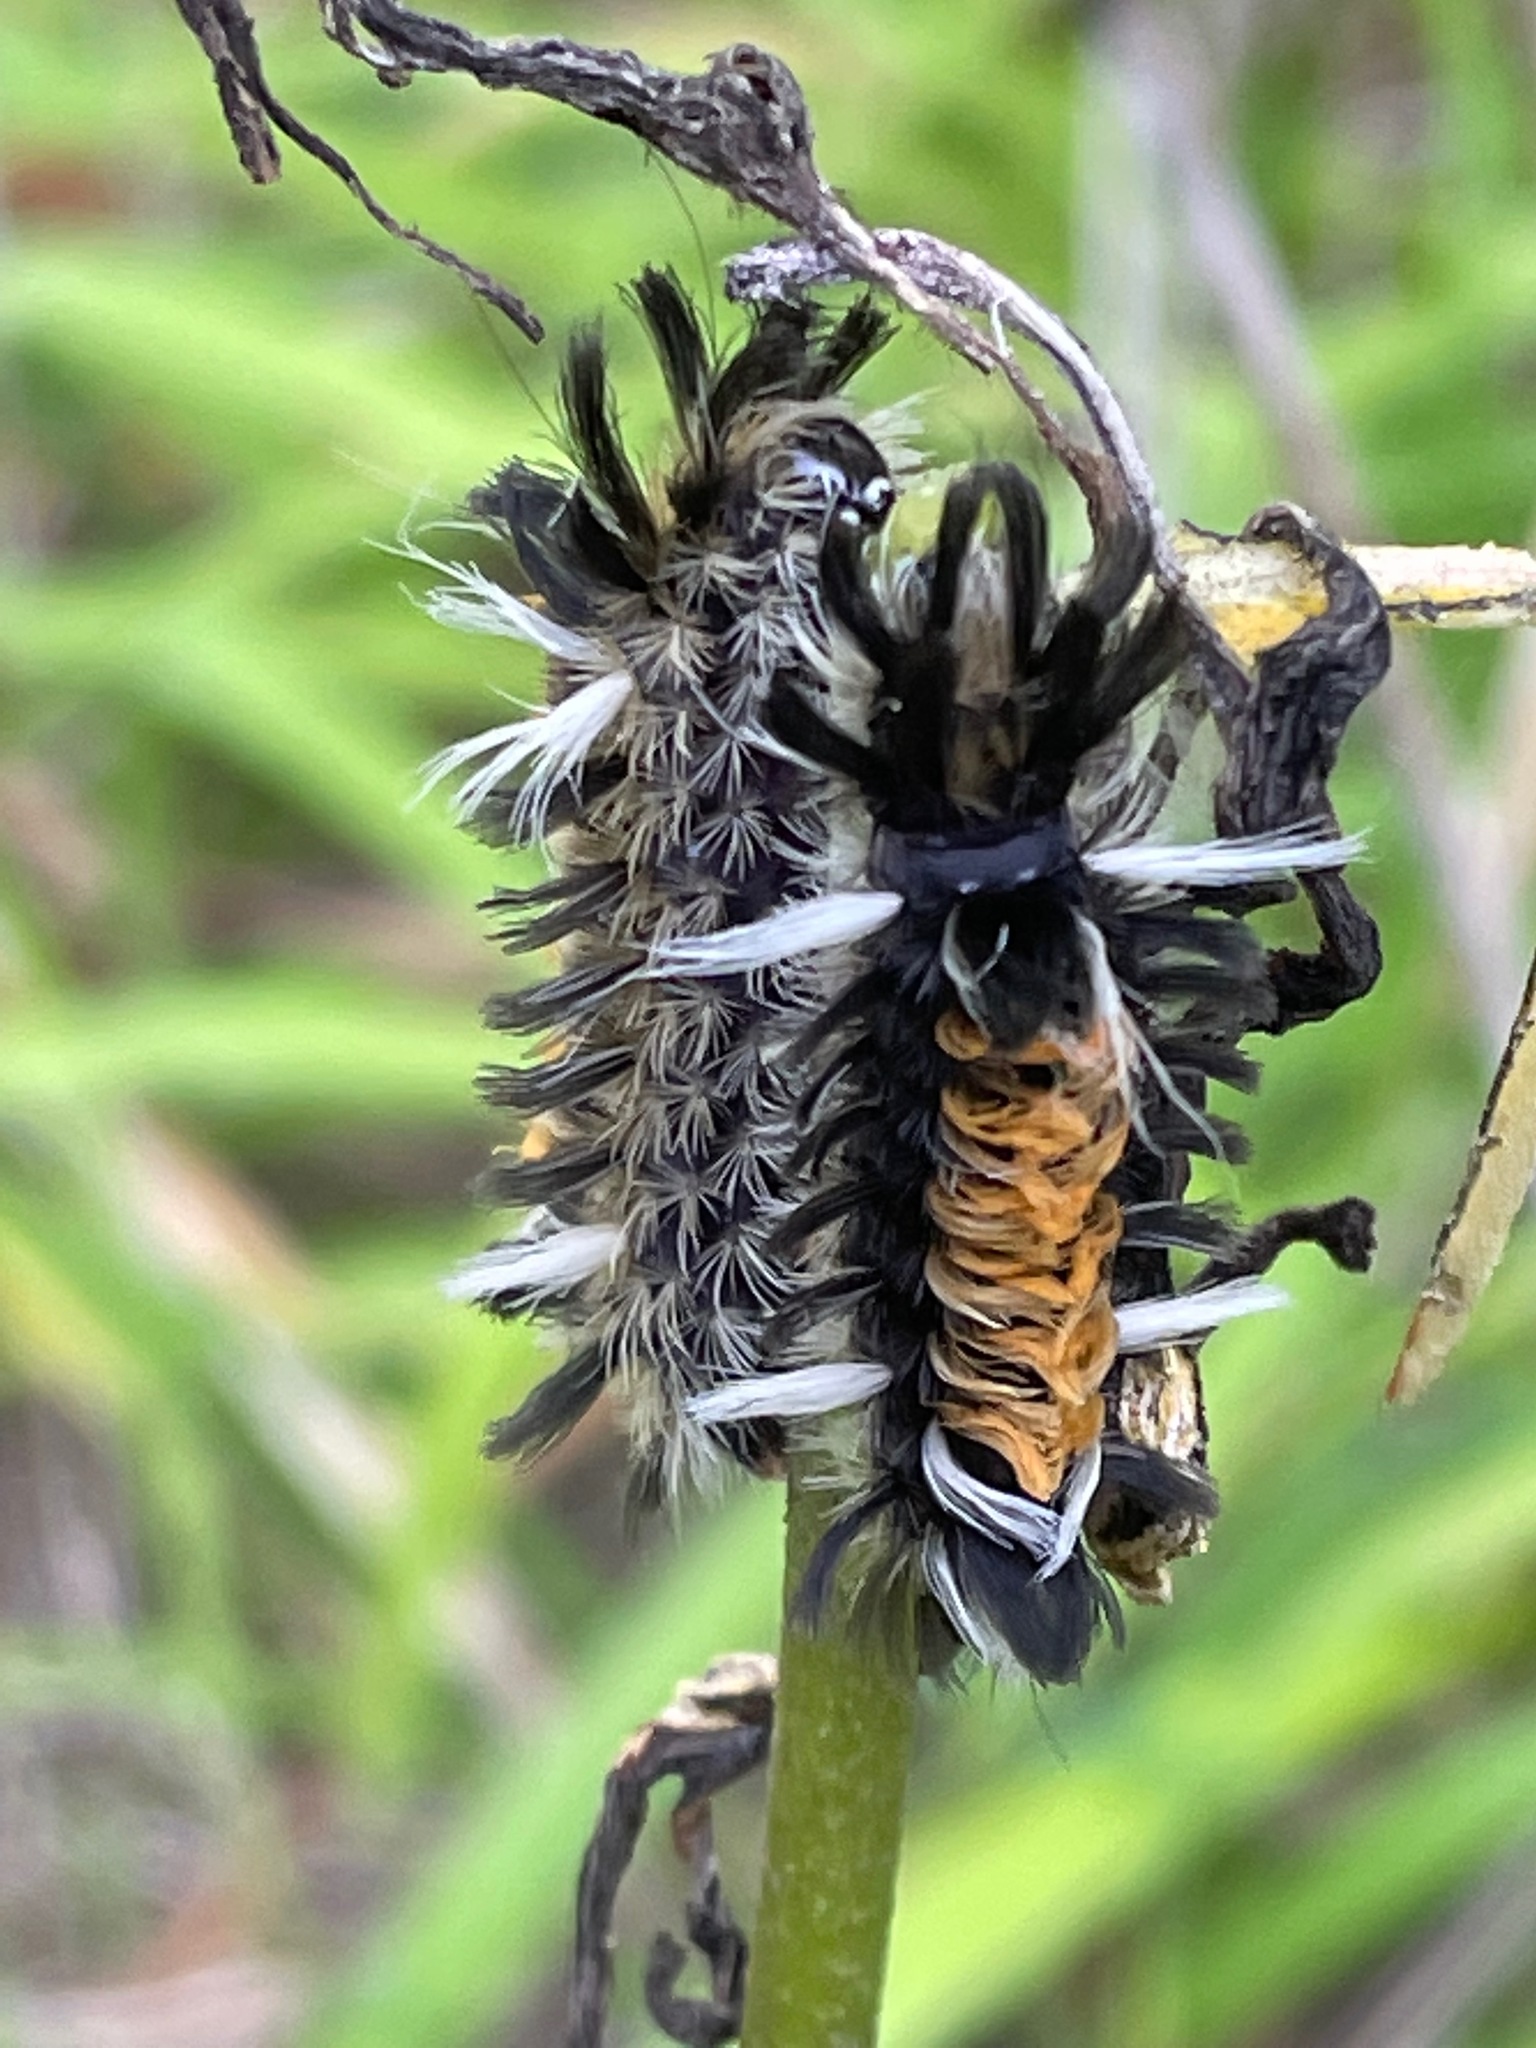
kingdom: Animalia
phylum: Arthropoda
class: Insecta
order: Lepidoptera
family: Erebidae
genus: Euchaetes
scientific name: Euchaetes egle
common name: Milkweed tussock moth
